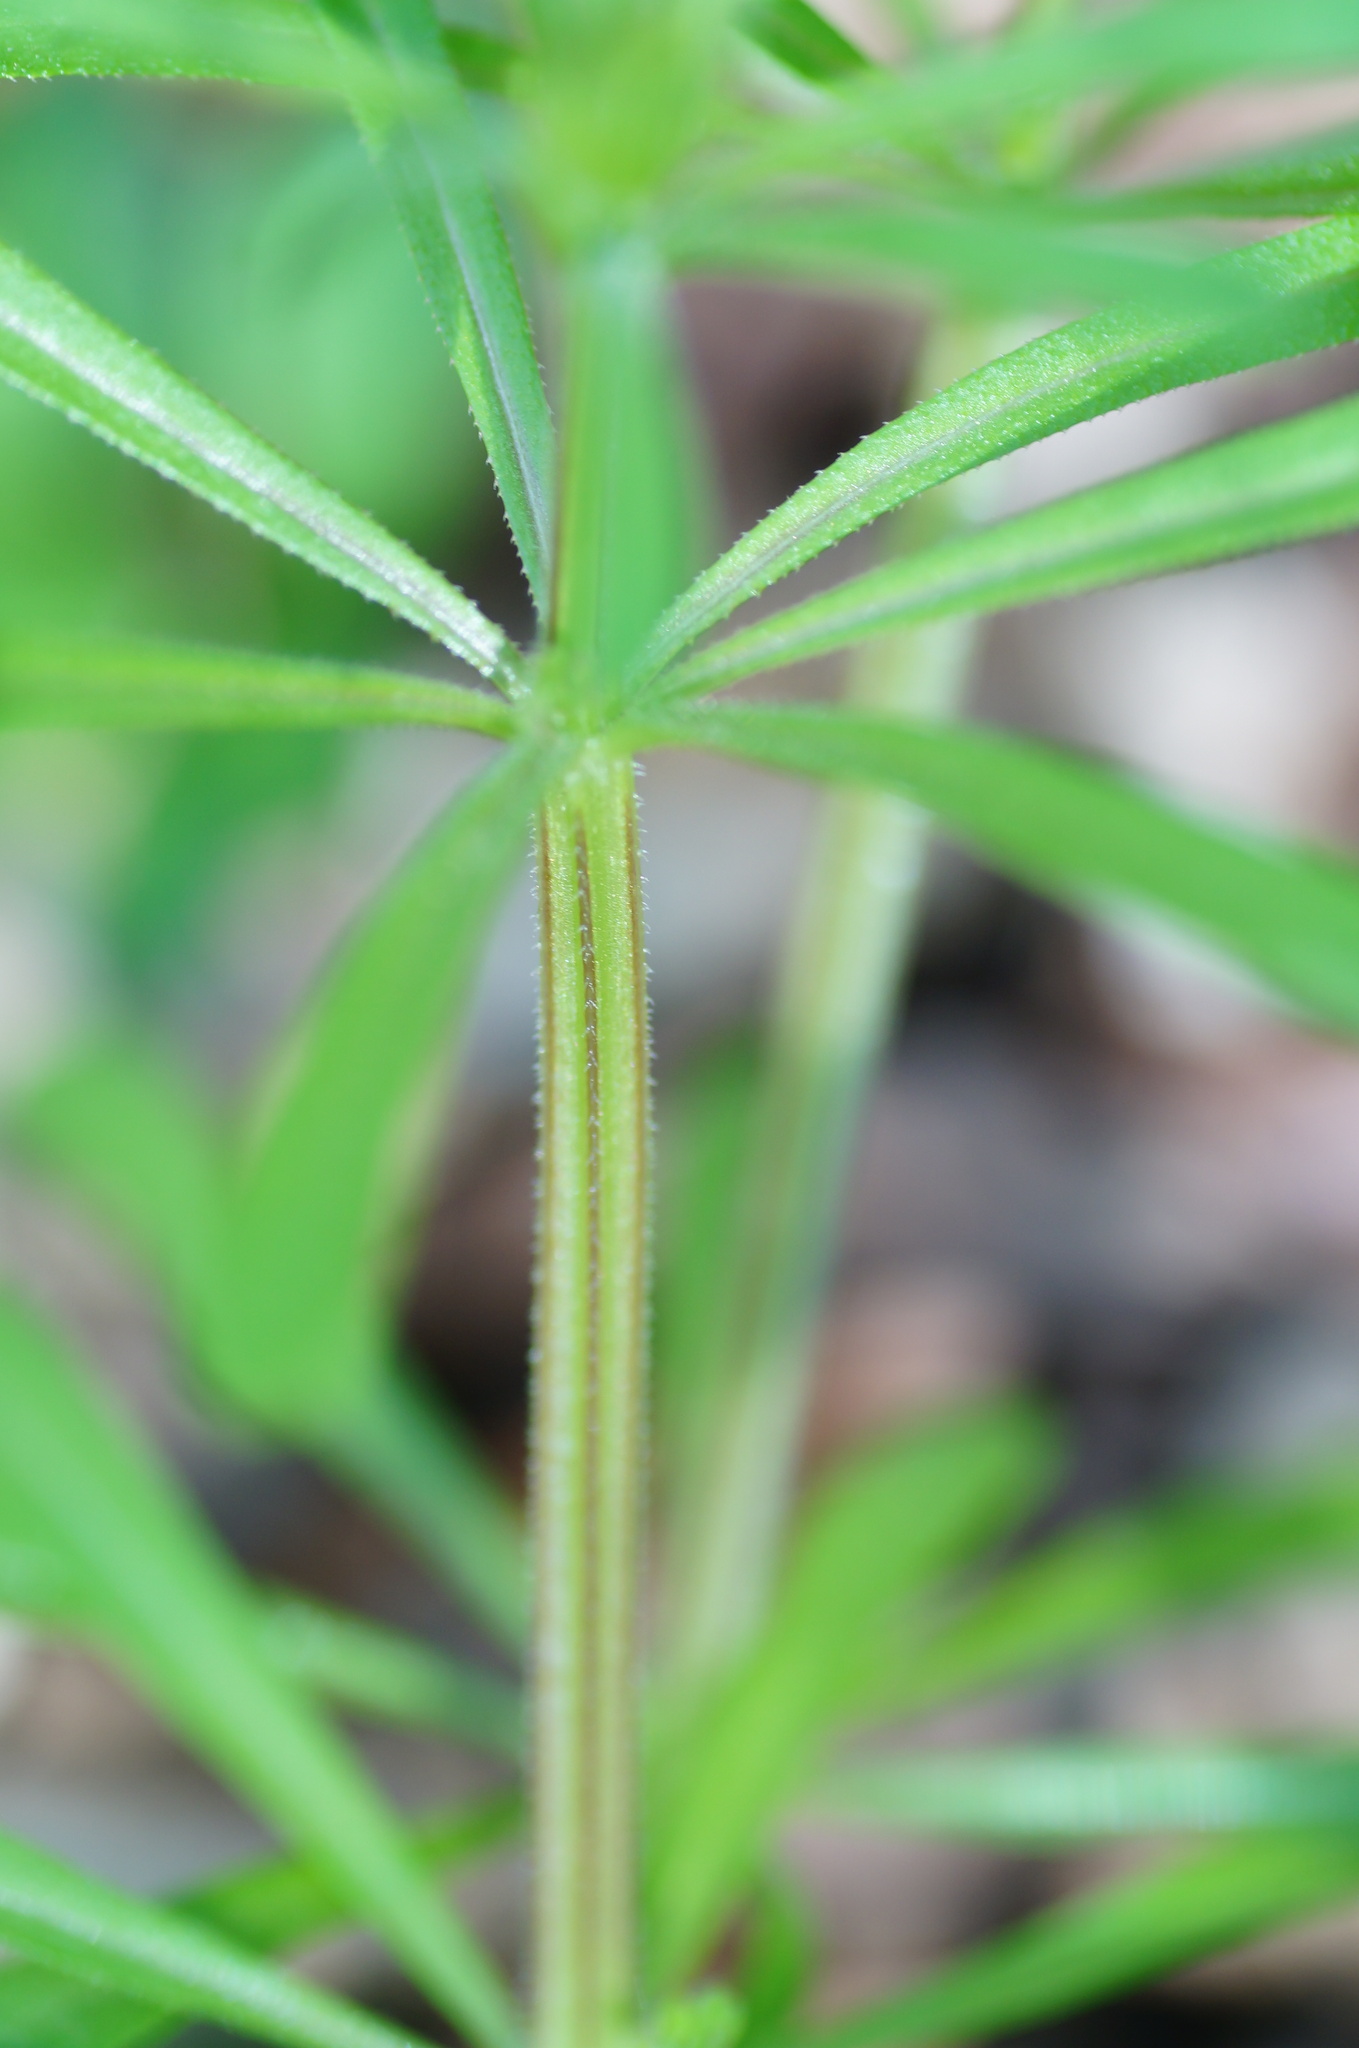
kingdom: Plantae
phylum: Tracheophyta
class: Magnoliopsida
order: Gentianales
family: Rubiaceae
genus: Galium
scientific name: Galium aparine
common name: Cleavers
